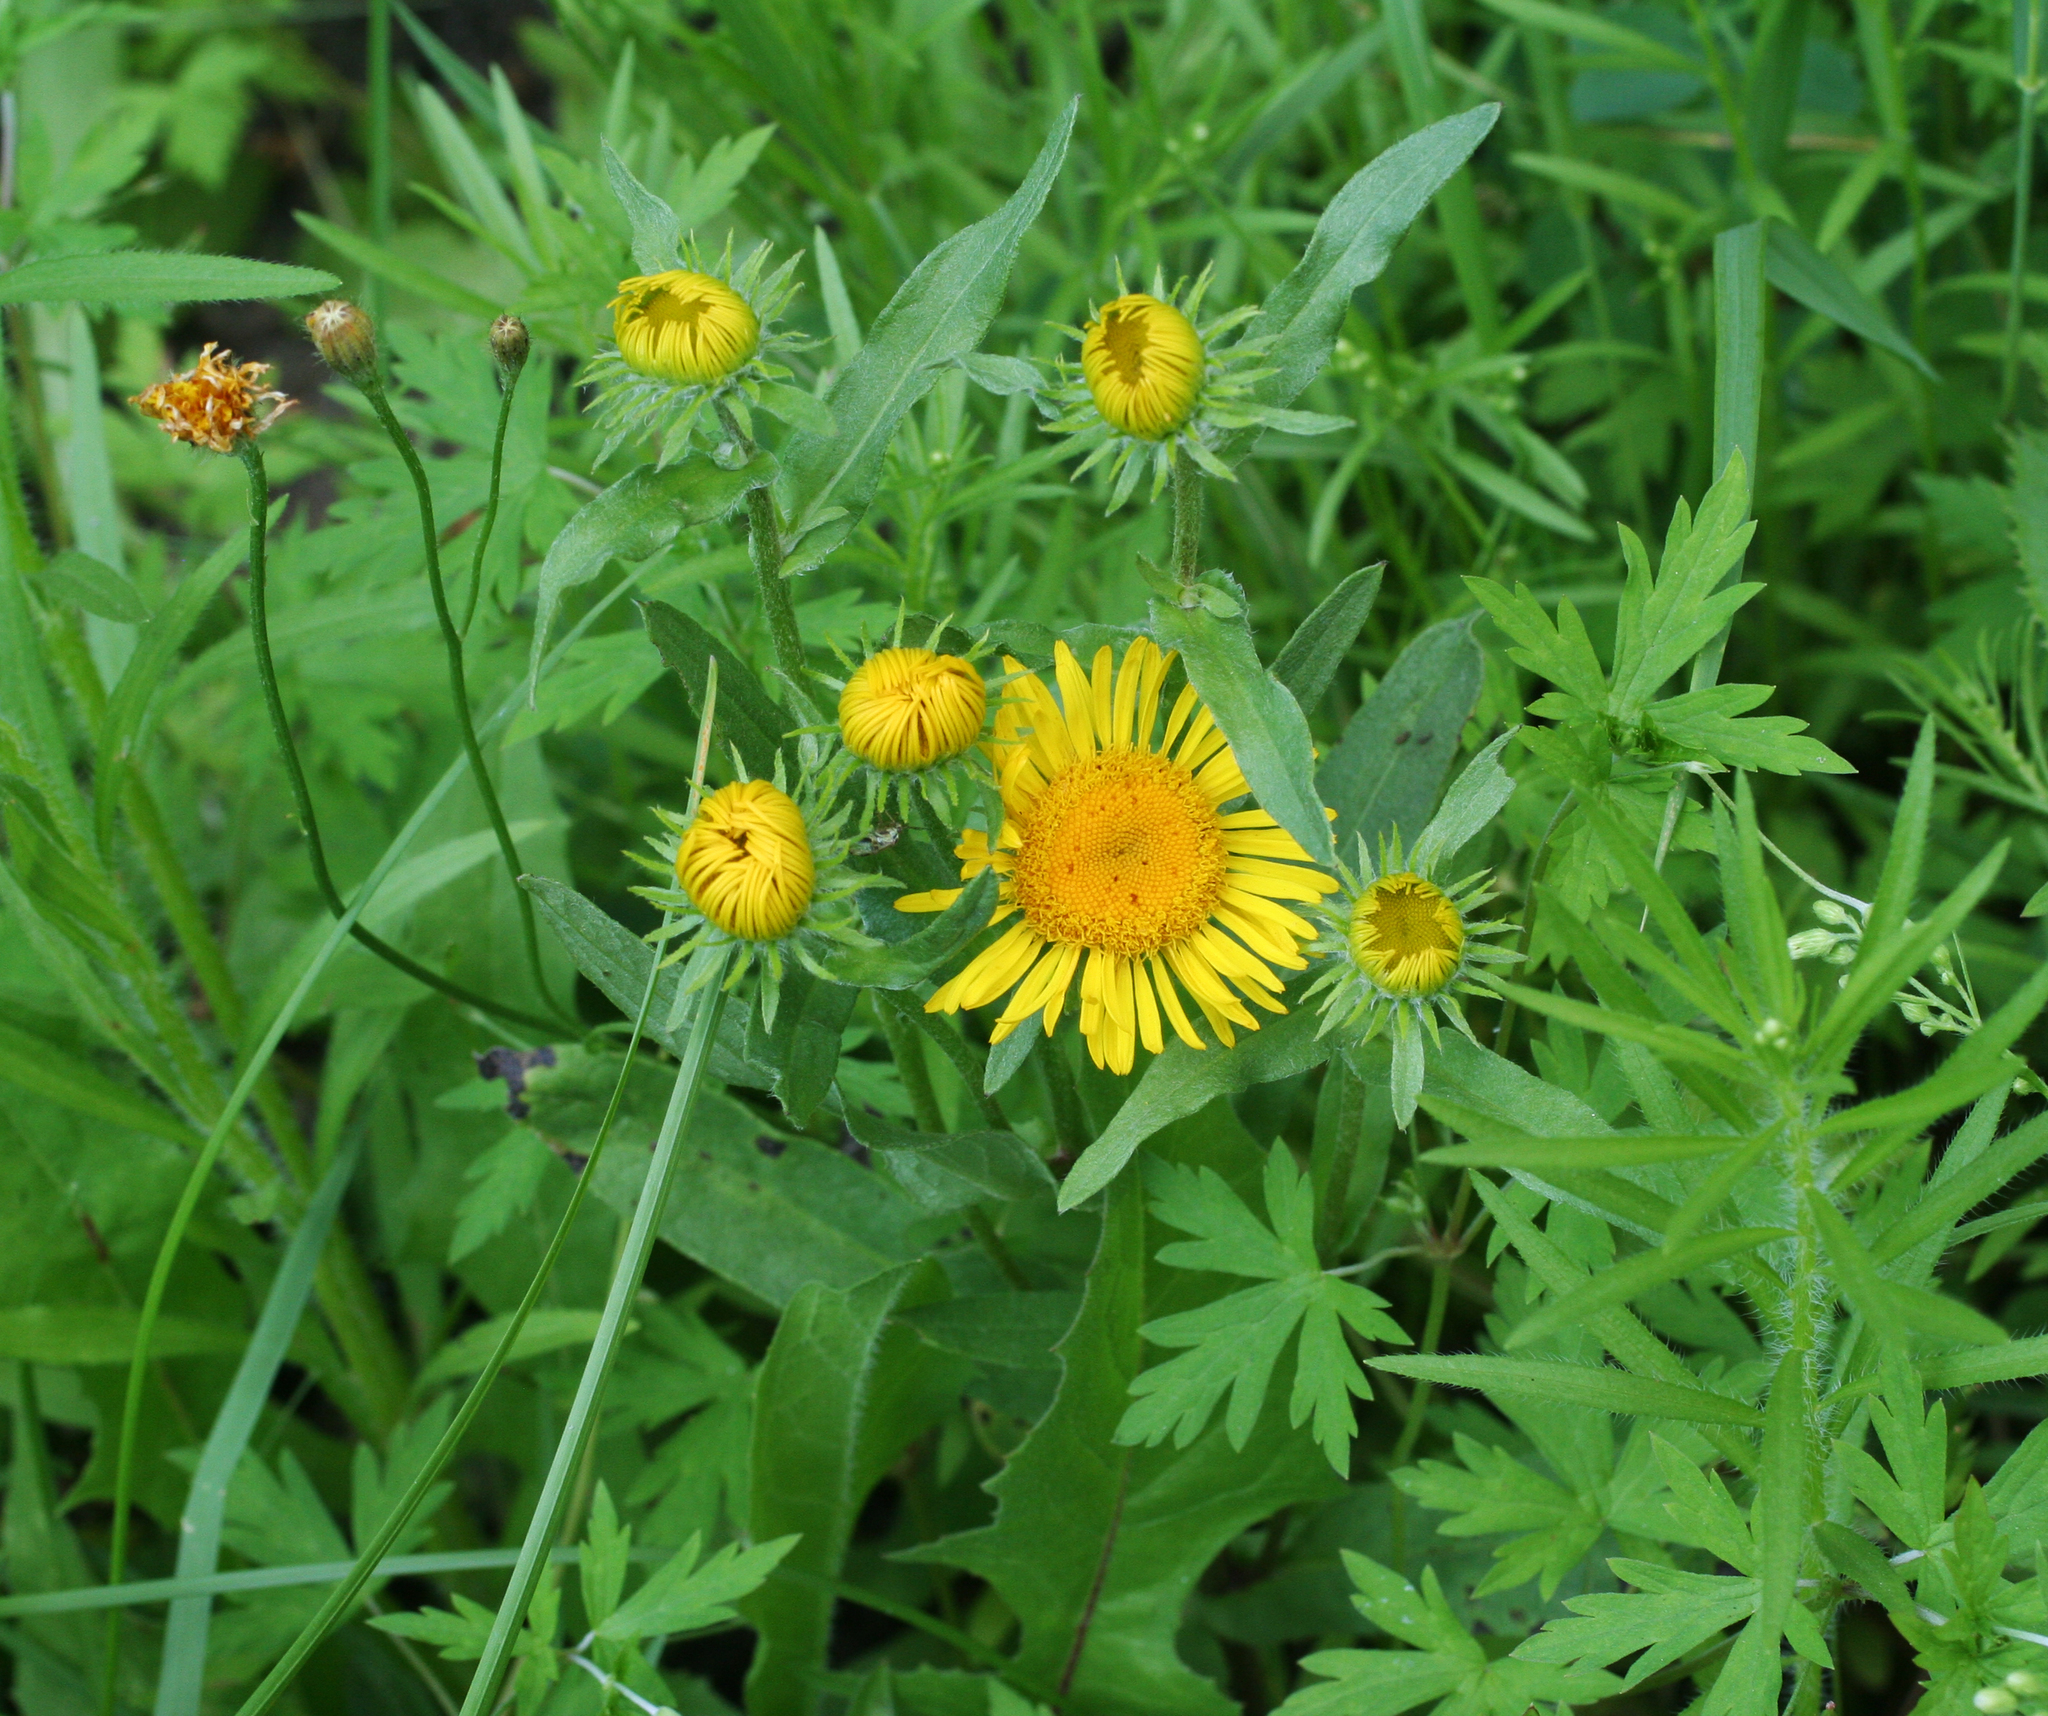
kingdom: Plantae
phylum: Tracheophyta
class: Magnoliopsida
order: Asterales
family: Asteraceae
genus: Pentanema
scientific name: Pentanema britannicum
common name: British elecampane
